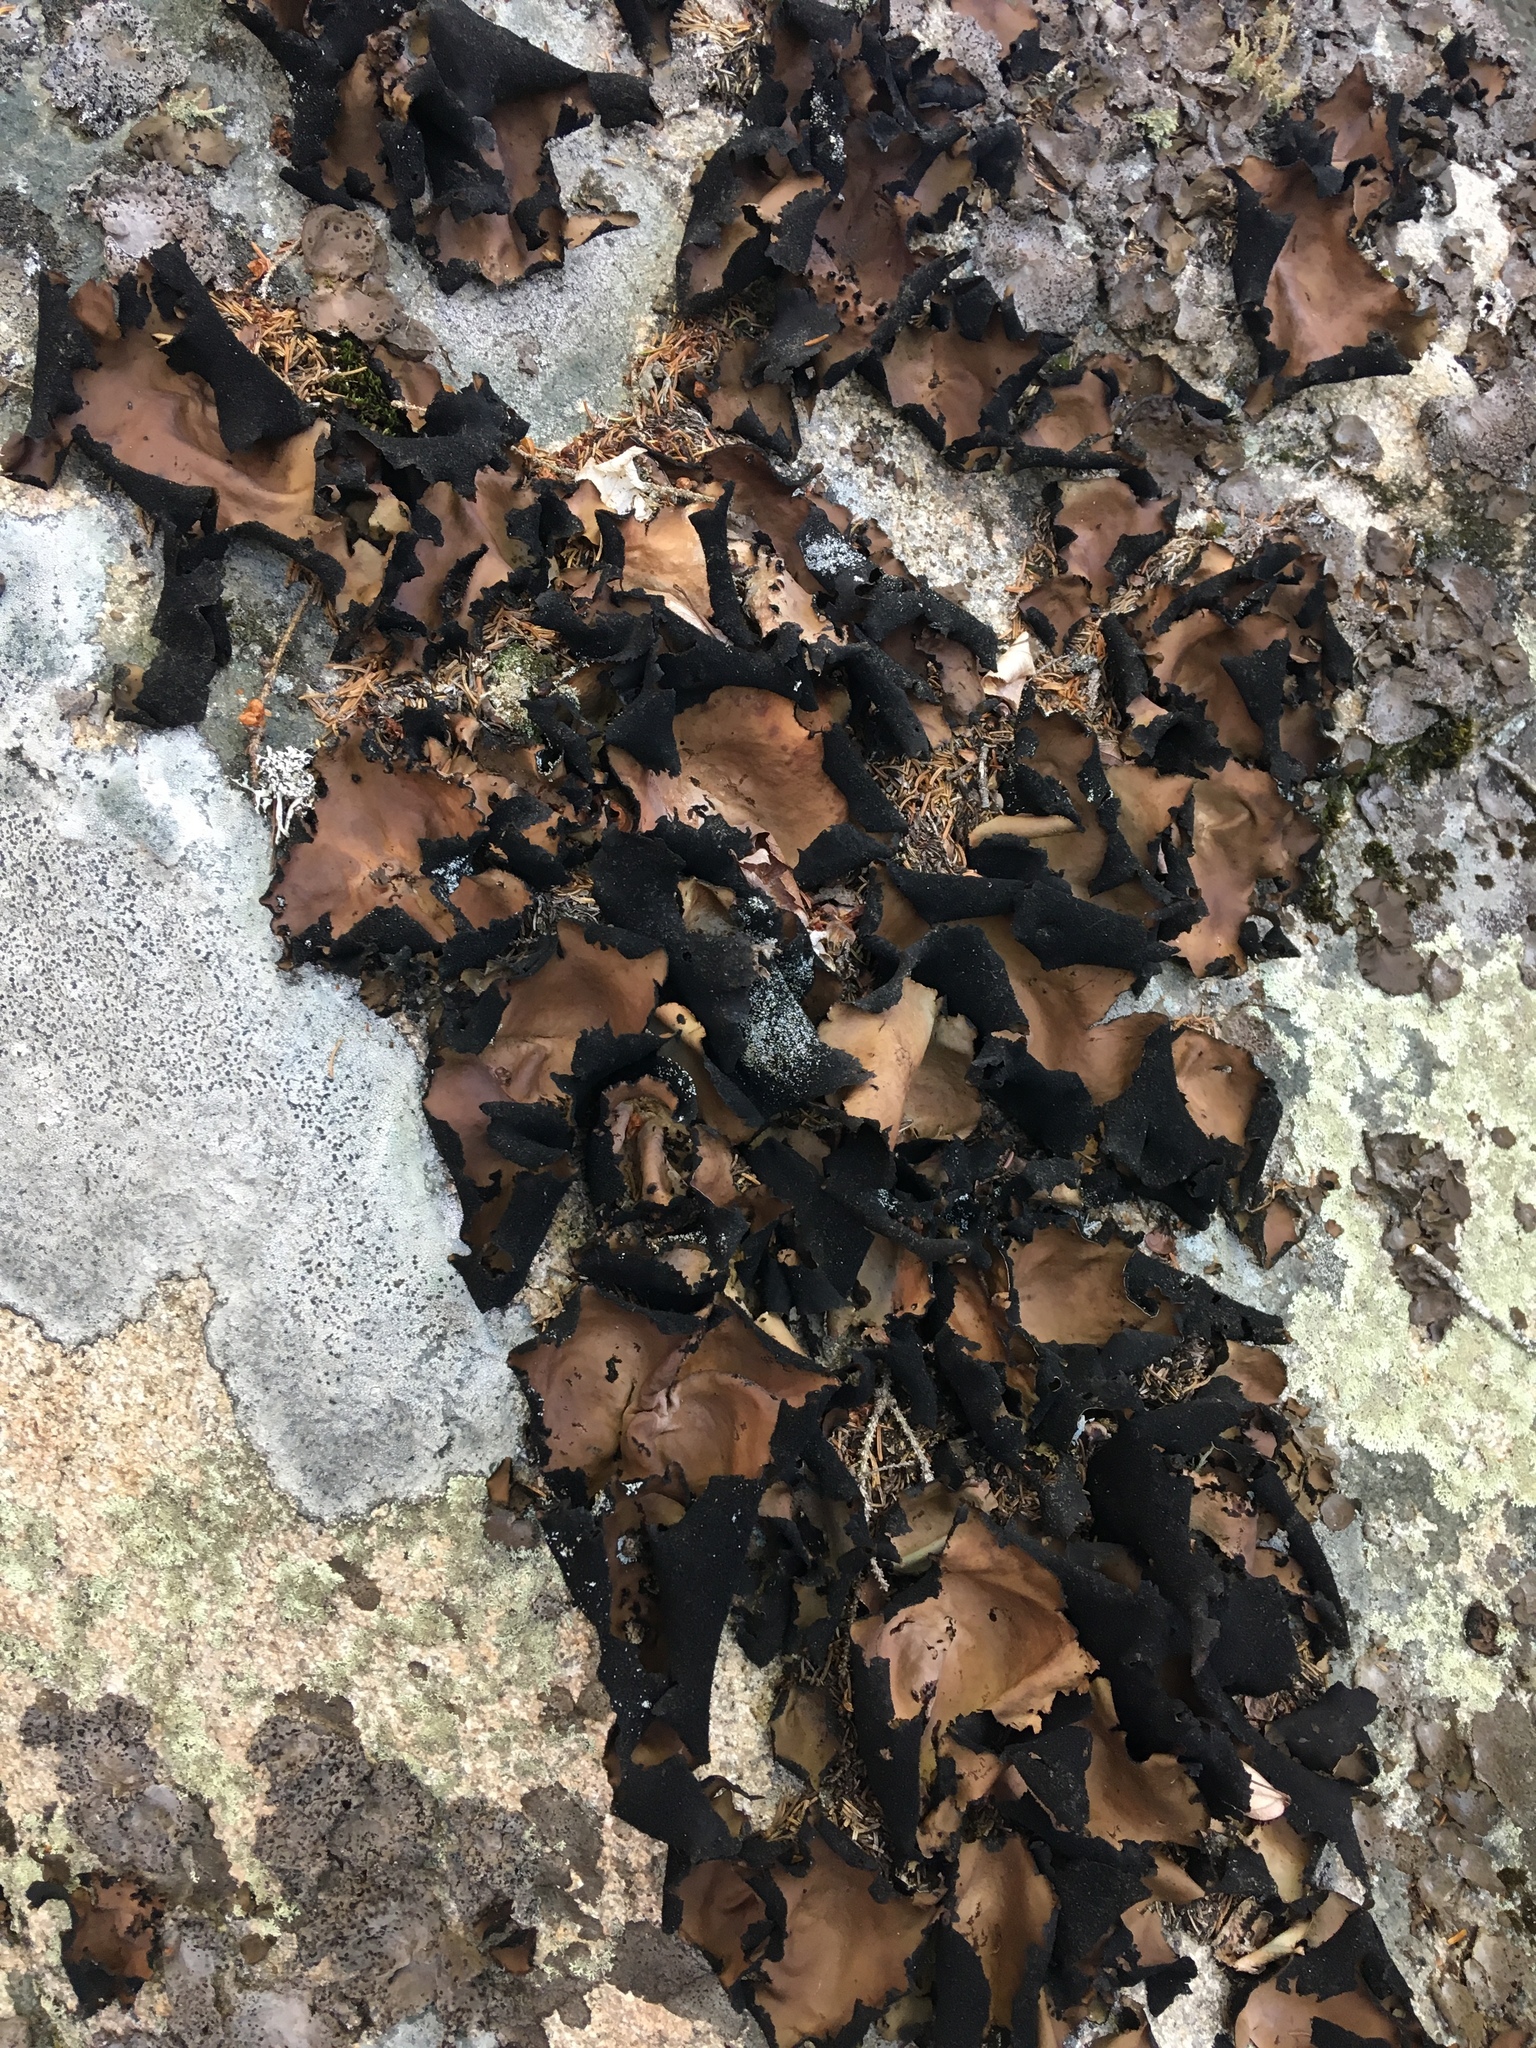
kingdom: Fungi
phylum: Ascomycota
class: Lecanoromycetes
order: Umbilicariales
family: Umbilicariaceae
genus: Umbilicaria
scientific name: Umbilicaria mammulata
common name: Smooth rock tripe
